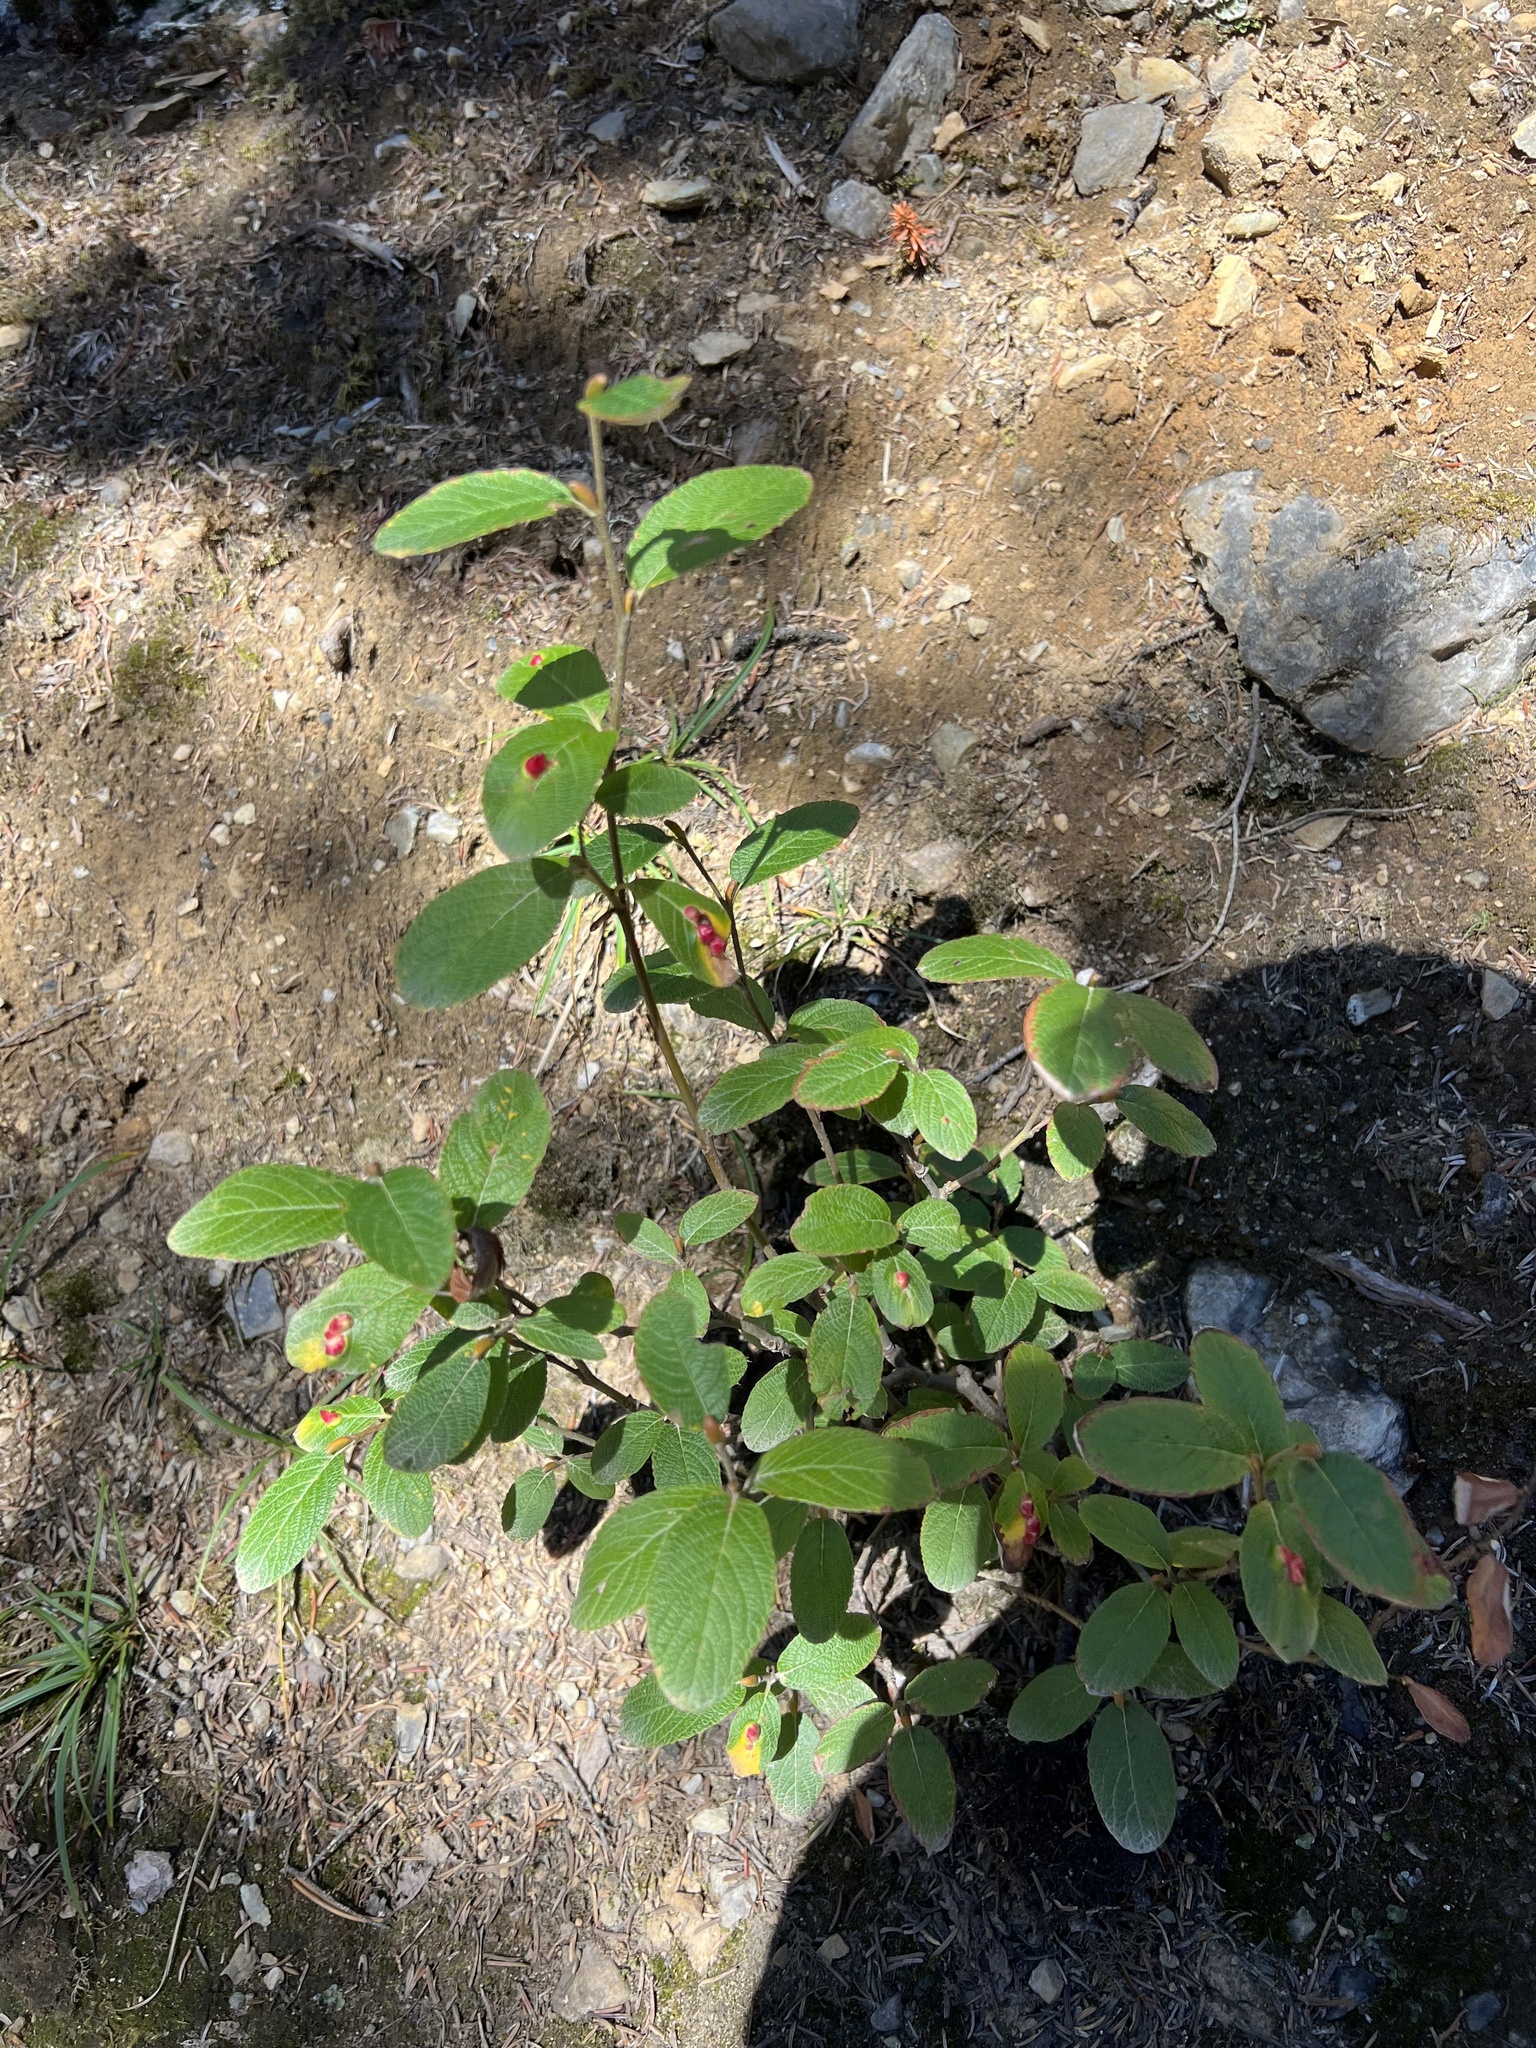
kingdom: Plantae
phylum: Tracheophyta
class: Magnoliopsida
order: Malpighiales
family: Salicaceae
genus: Salix
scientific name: Salix vestita
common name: Hairy willow
